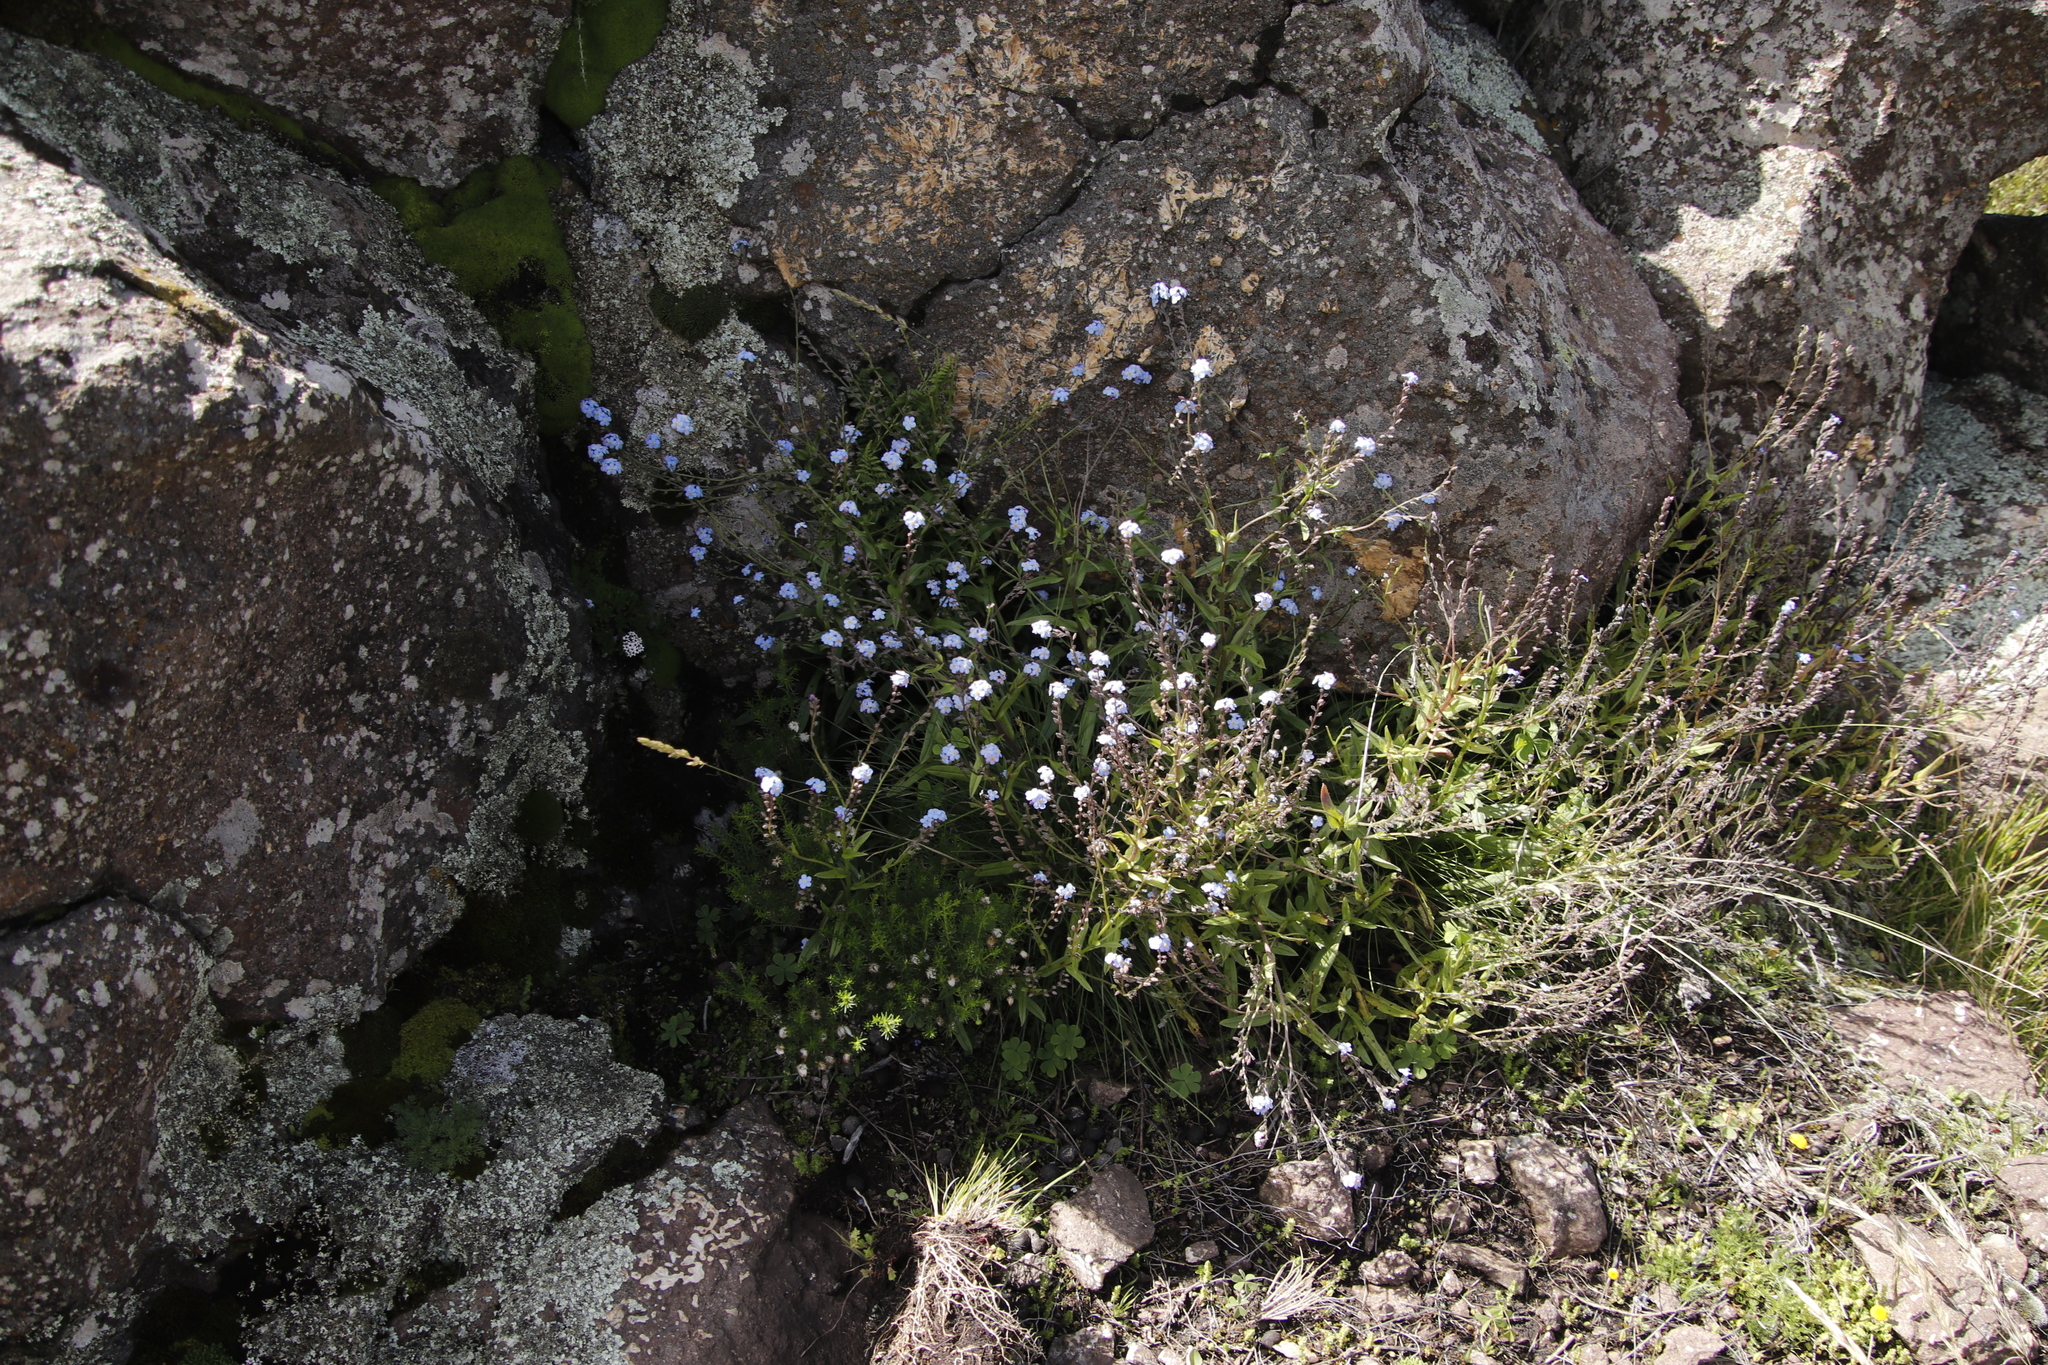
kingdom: Plantae
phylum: Tracheophyta
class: Magnoliopsida
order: Boraginales
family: Boraginaceae
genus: Myosotis
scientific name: Myosotis semiamplexicaulis
